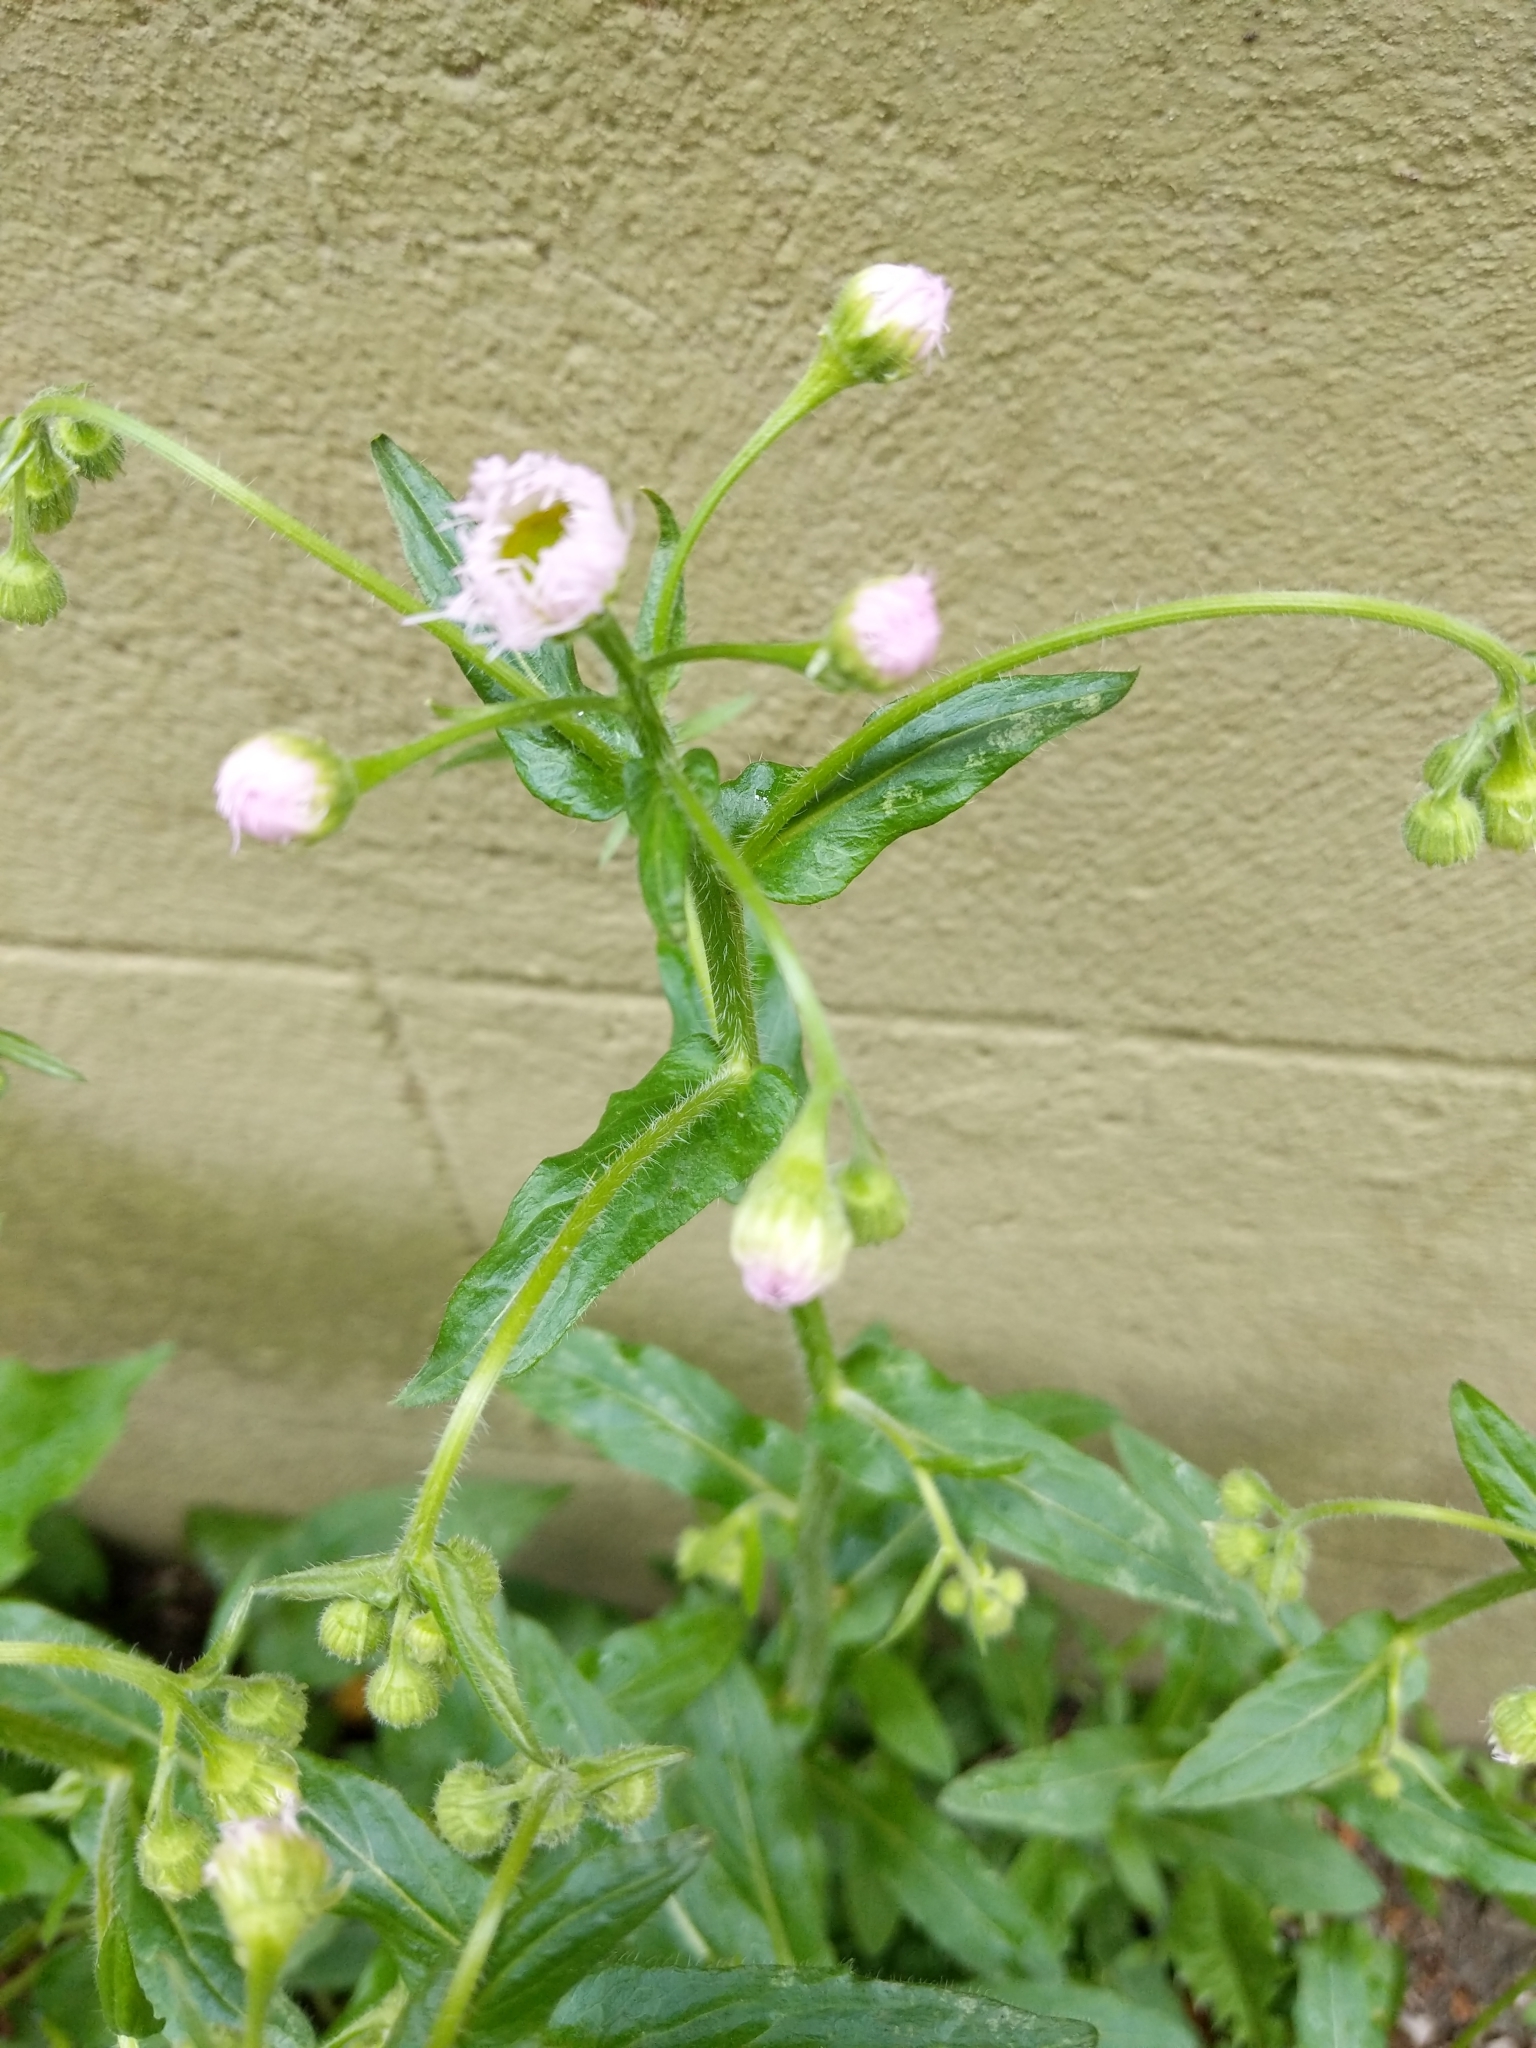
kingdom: Plantae
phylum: Tracheophyta
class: Magnoliopsida
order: Asterales
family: Asteraceae
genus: Erigeron
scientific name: Erigeron philadelphicus
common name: Robin's-plantain
